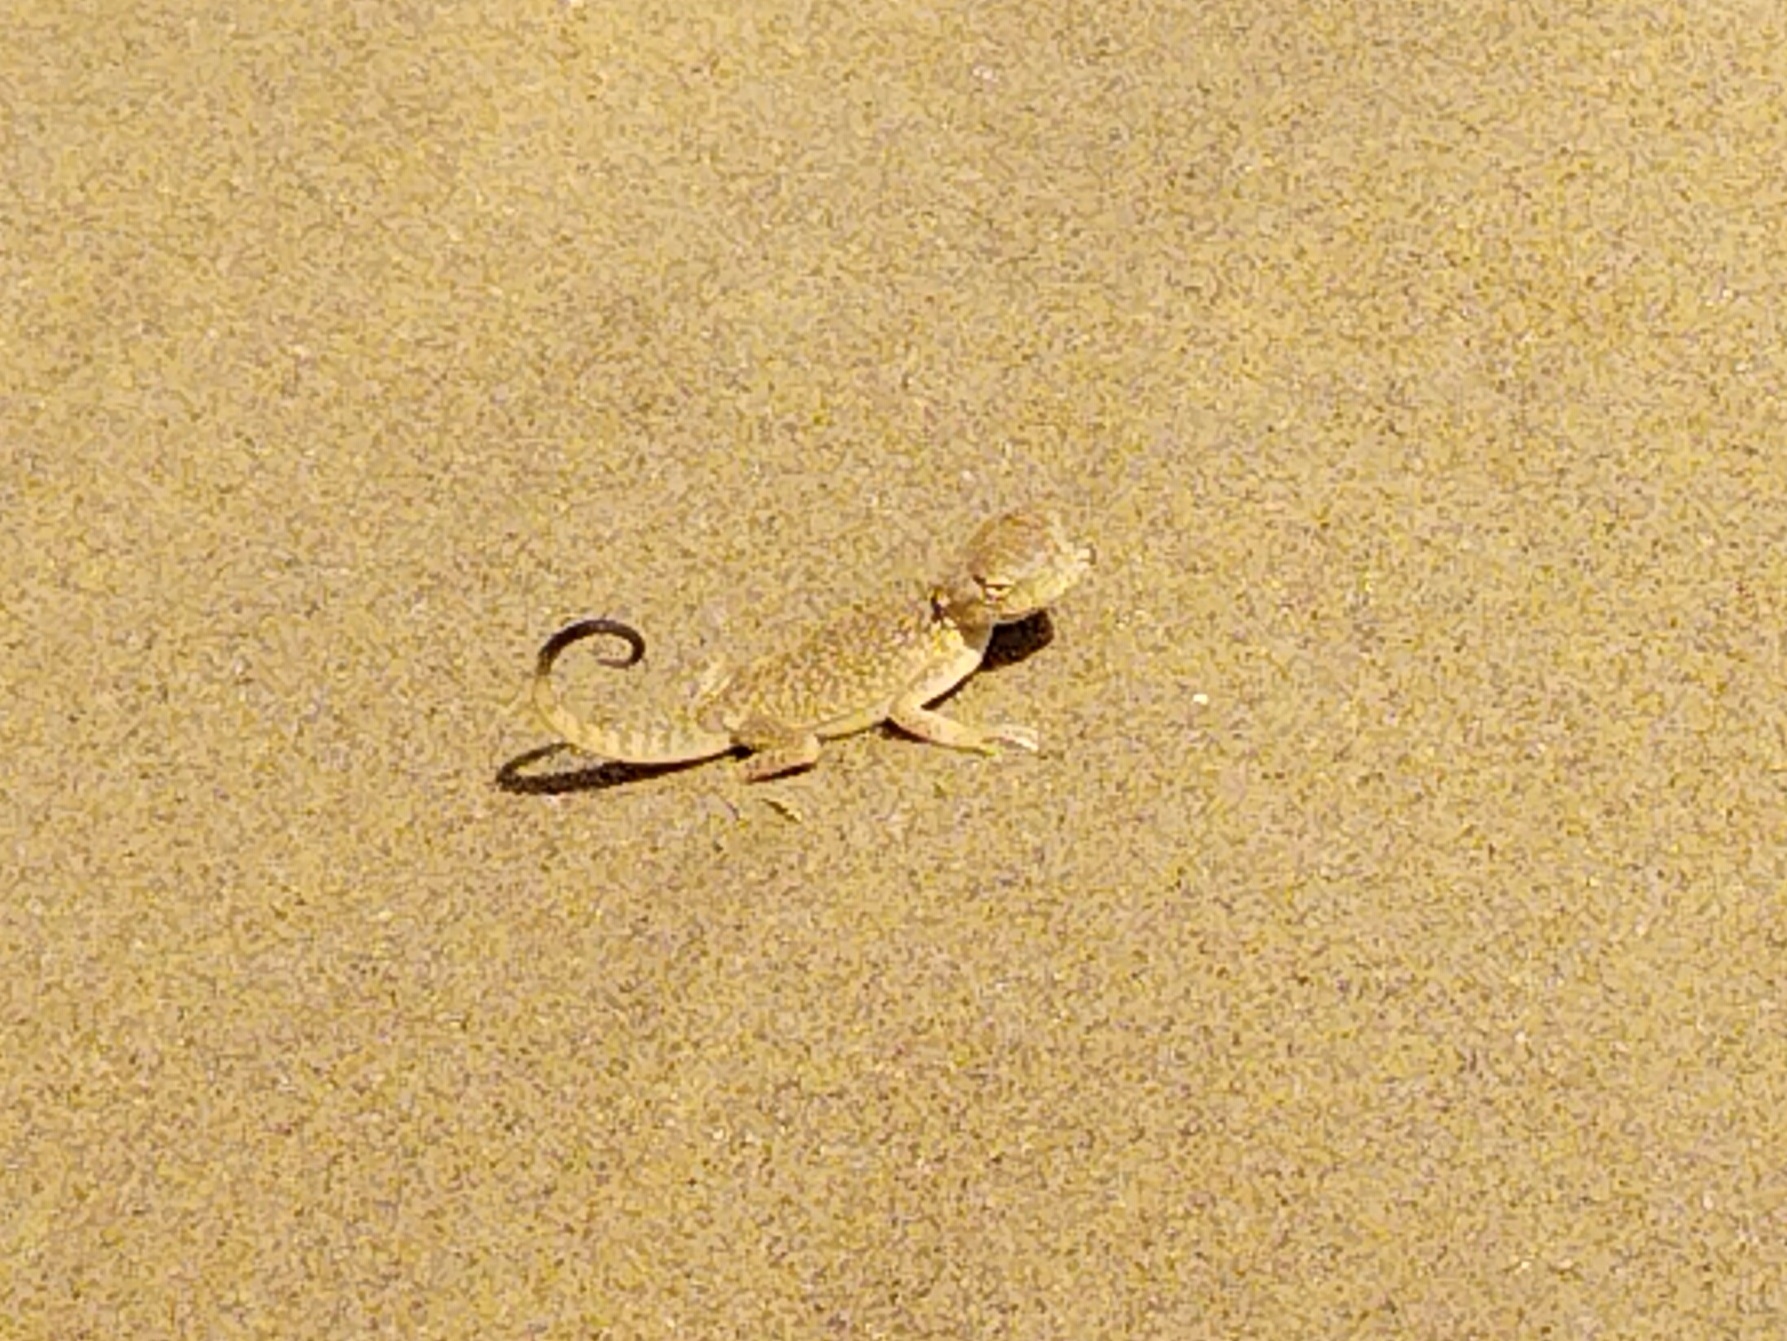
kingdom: Animalia
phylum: Chordata
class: Squamata
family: Agamidae
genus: Phrynocephalus
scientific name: Phrynocephalus mystaceus
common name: Secret toadhead agama
